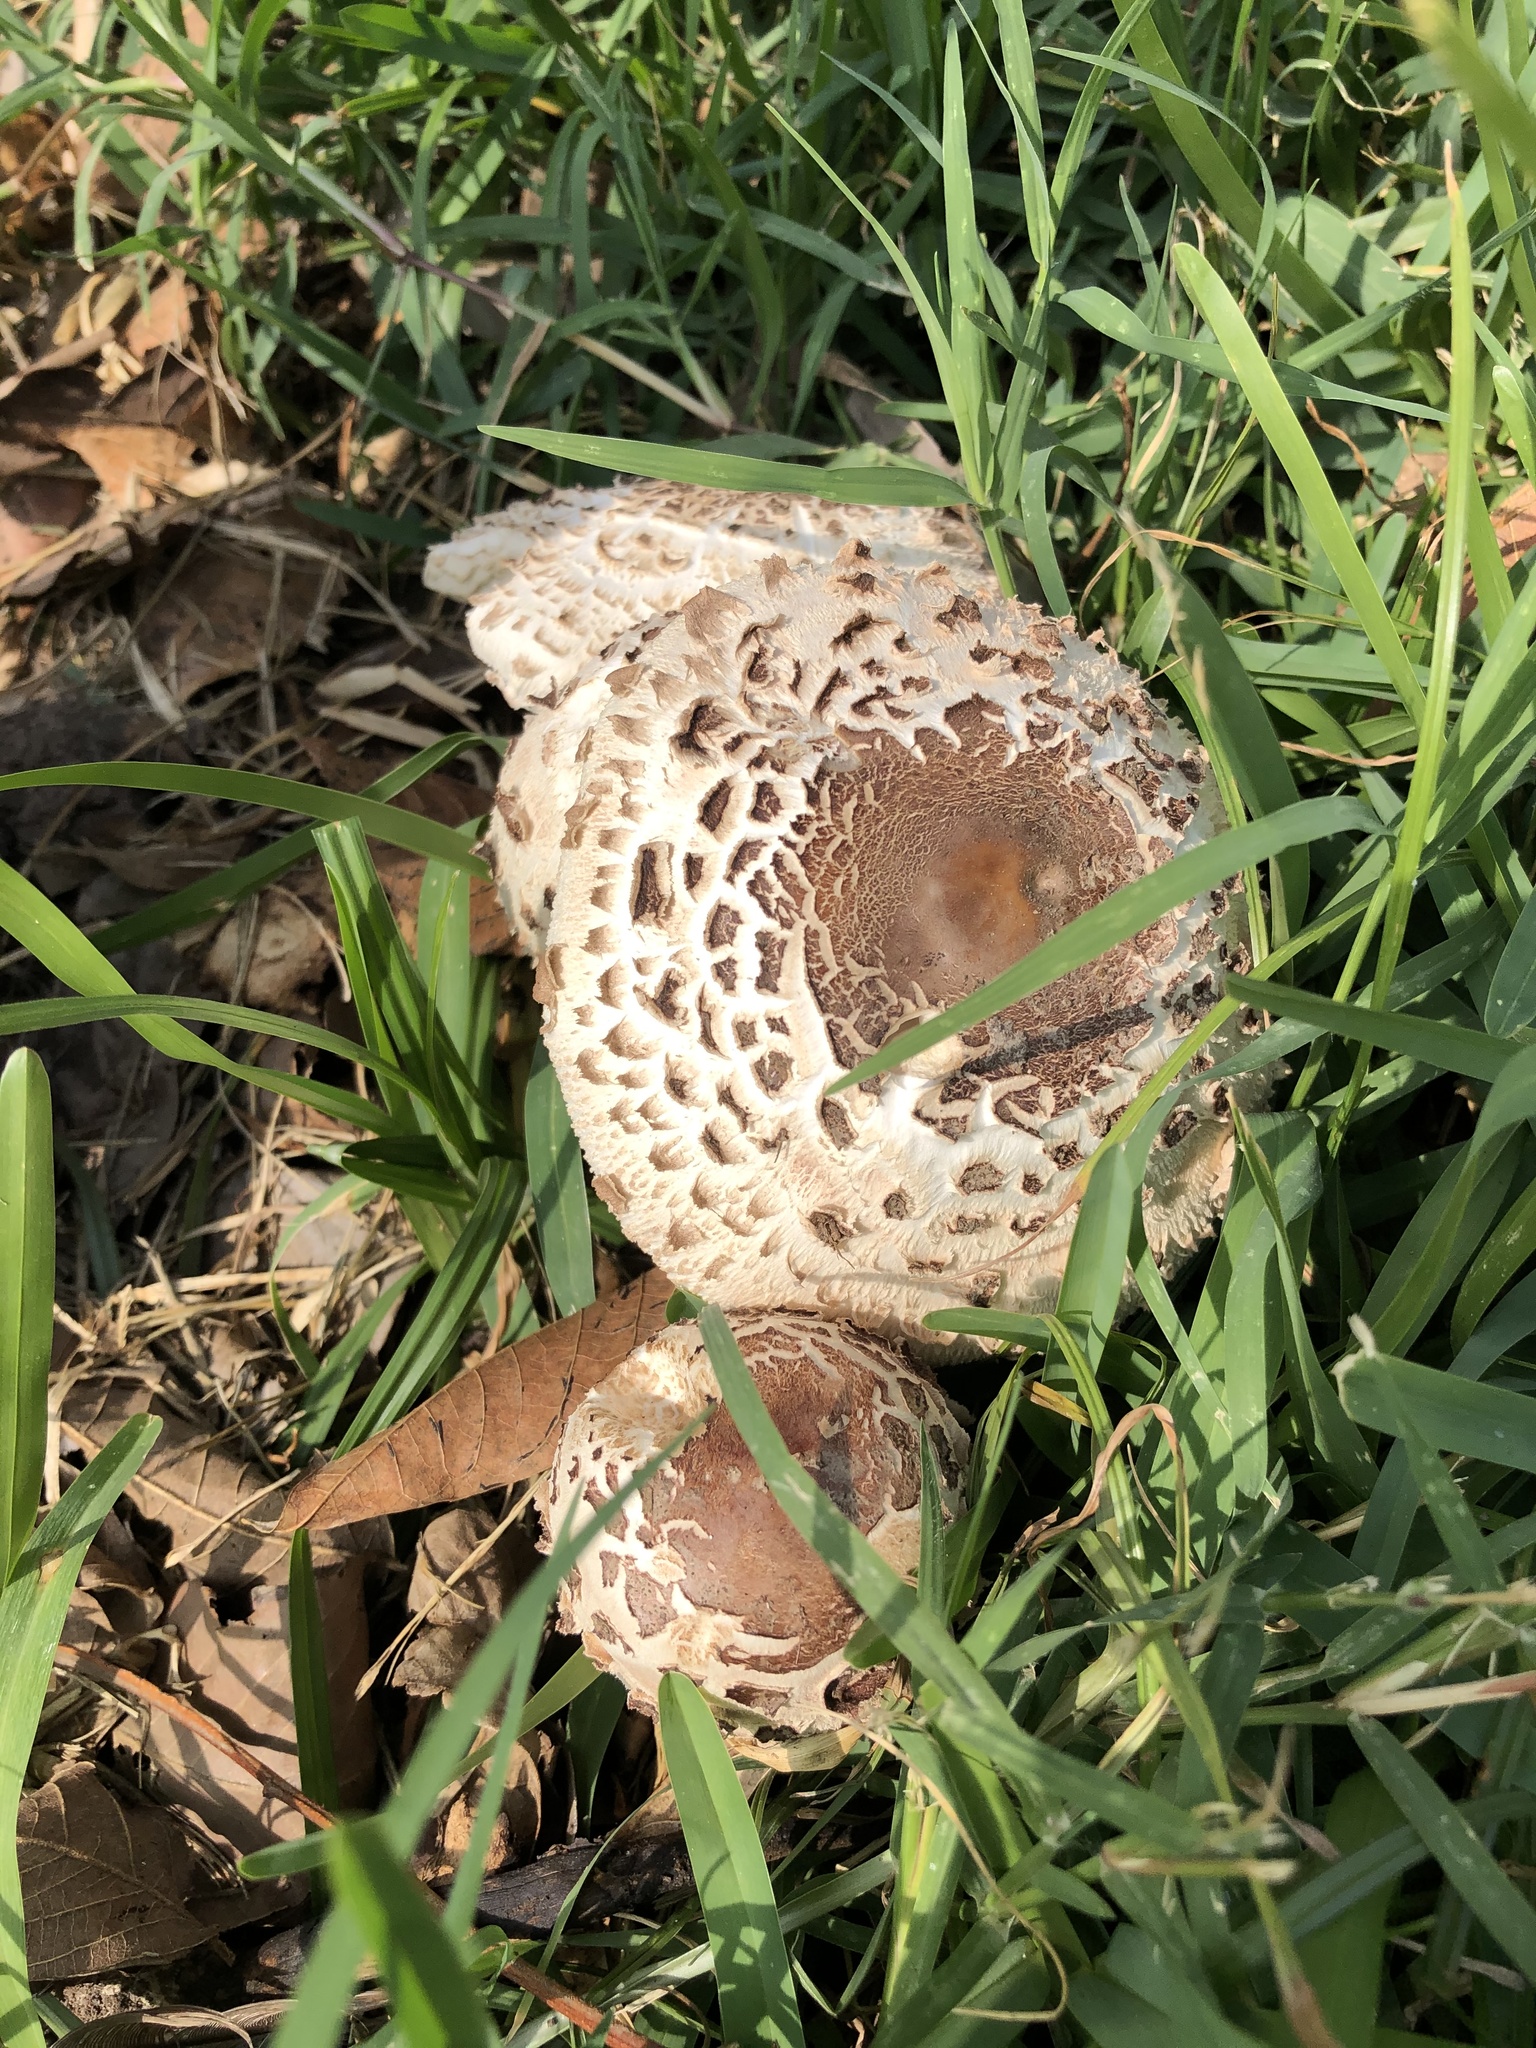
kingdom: Fungi
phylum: Basidiomycota
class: Agaricomycetes
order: Agaricales
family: Agaricaceae
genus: Chlorophyllum
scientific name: Chlorophyllum molybdites
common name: False parasol
